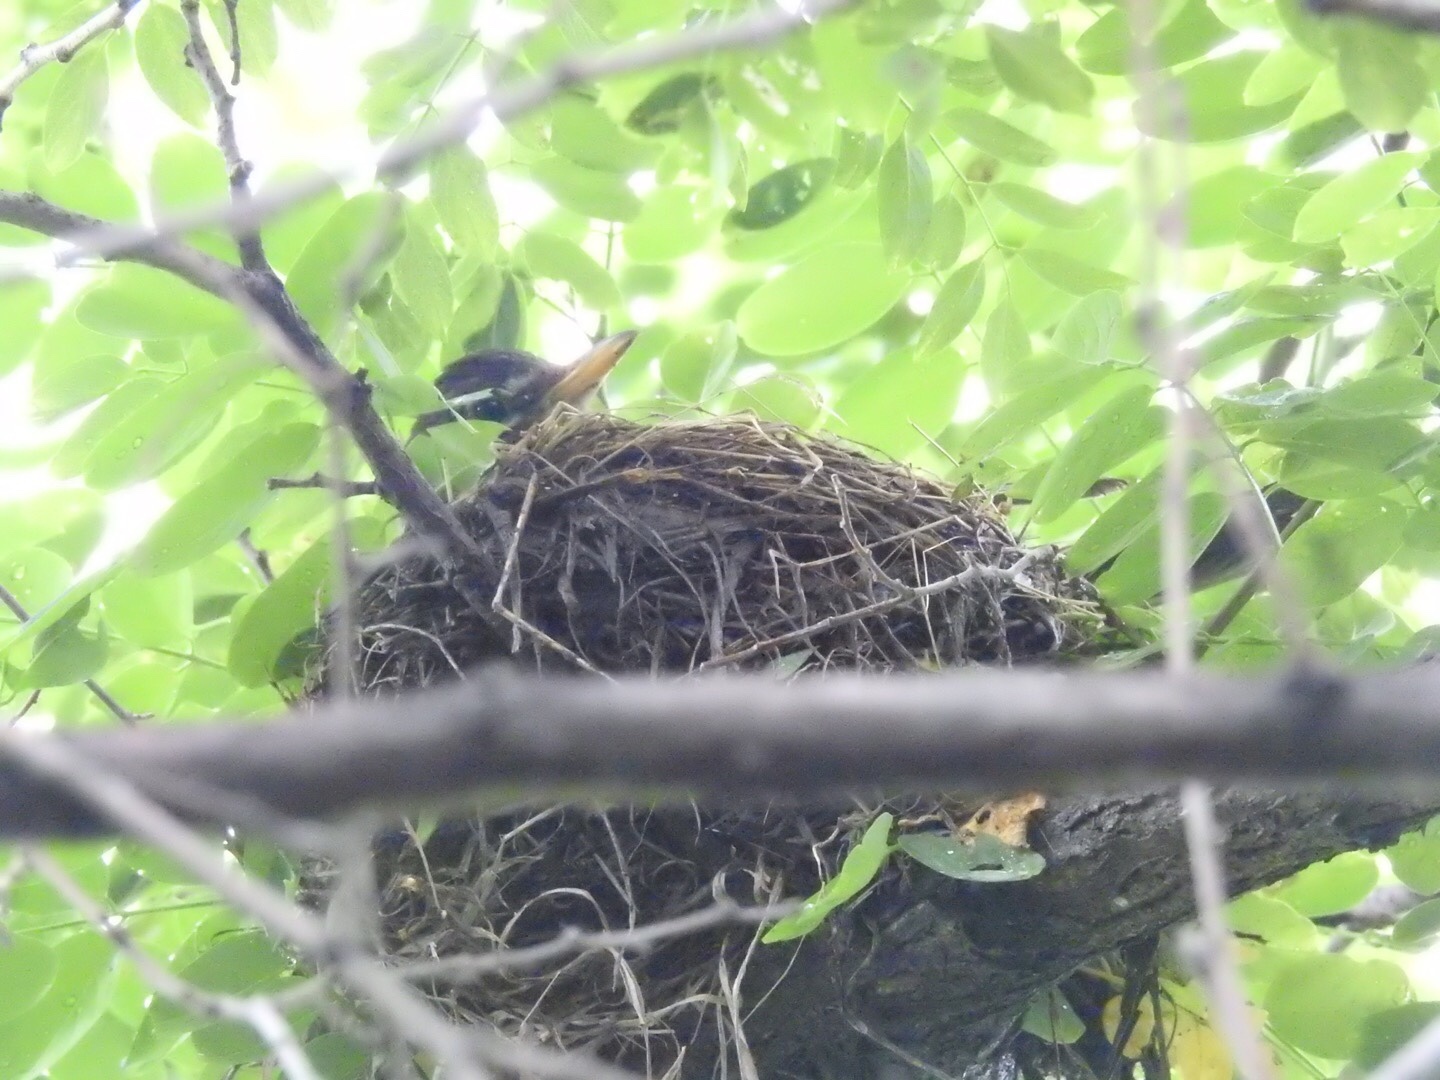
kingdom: Animalia
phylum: Chordata
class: Aves
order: Passeriformes
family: Turdidae
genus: Turdus
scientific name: Turdus migratorius
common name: American robin
